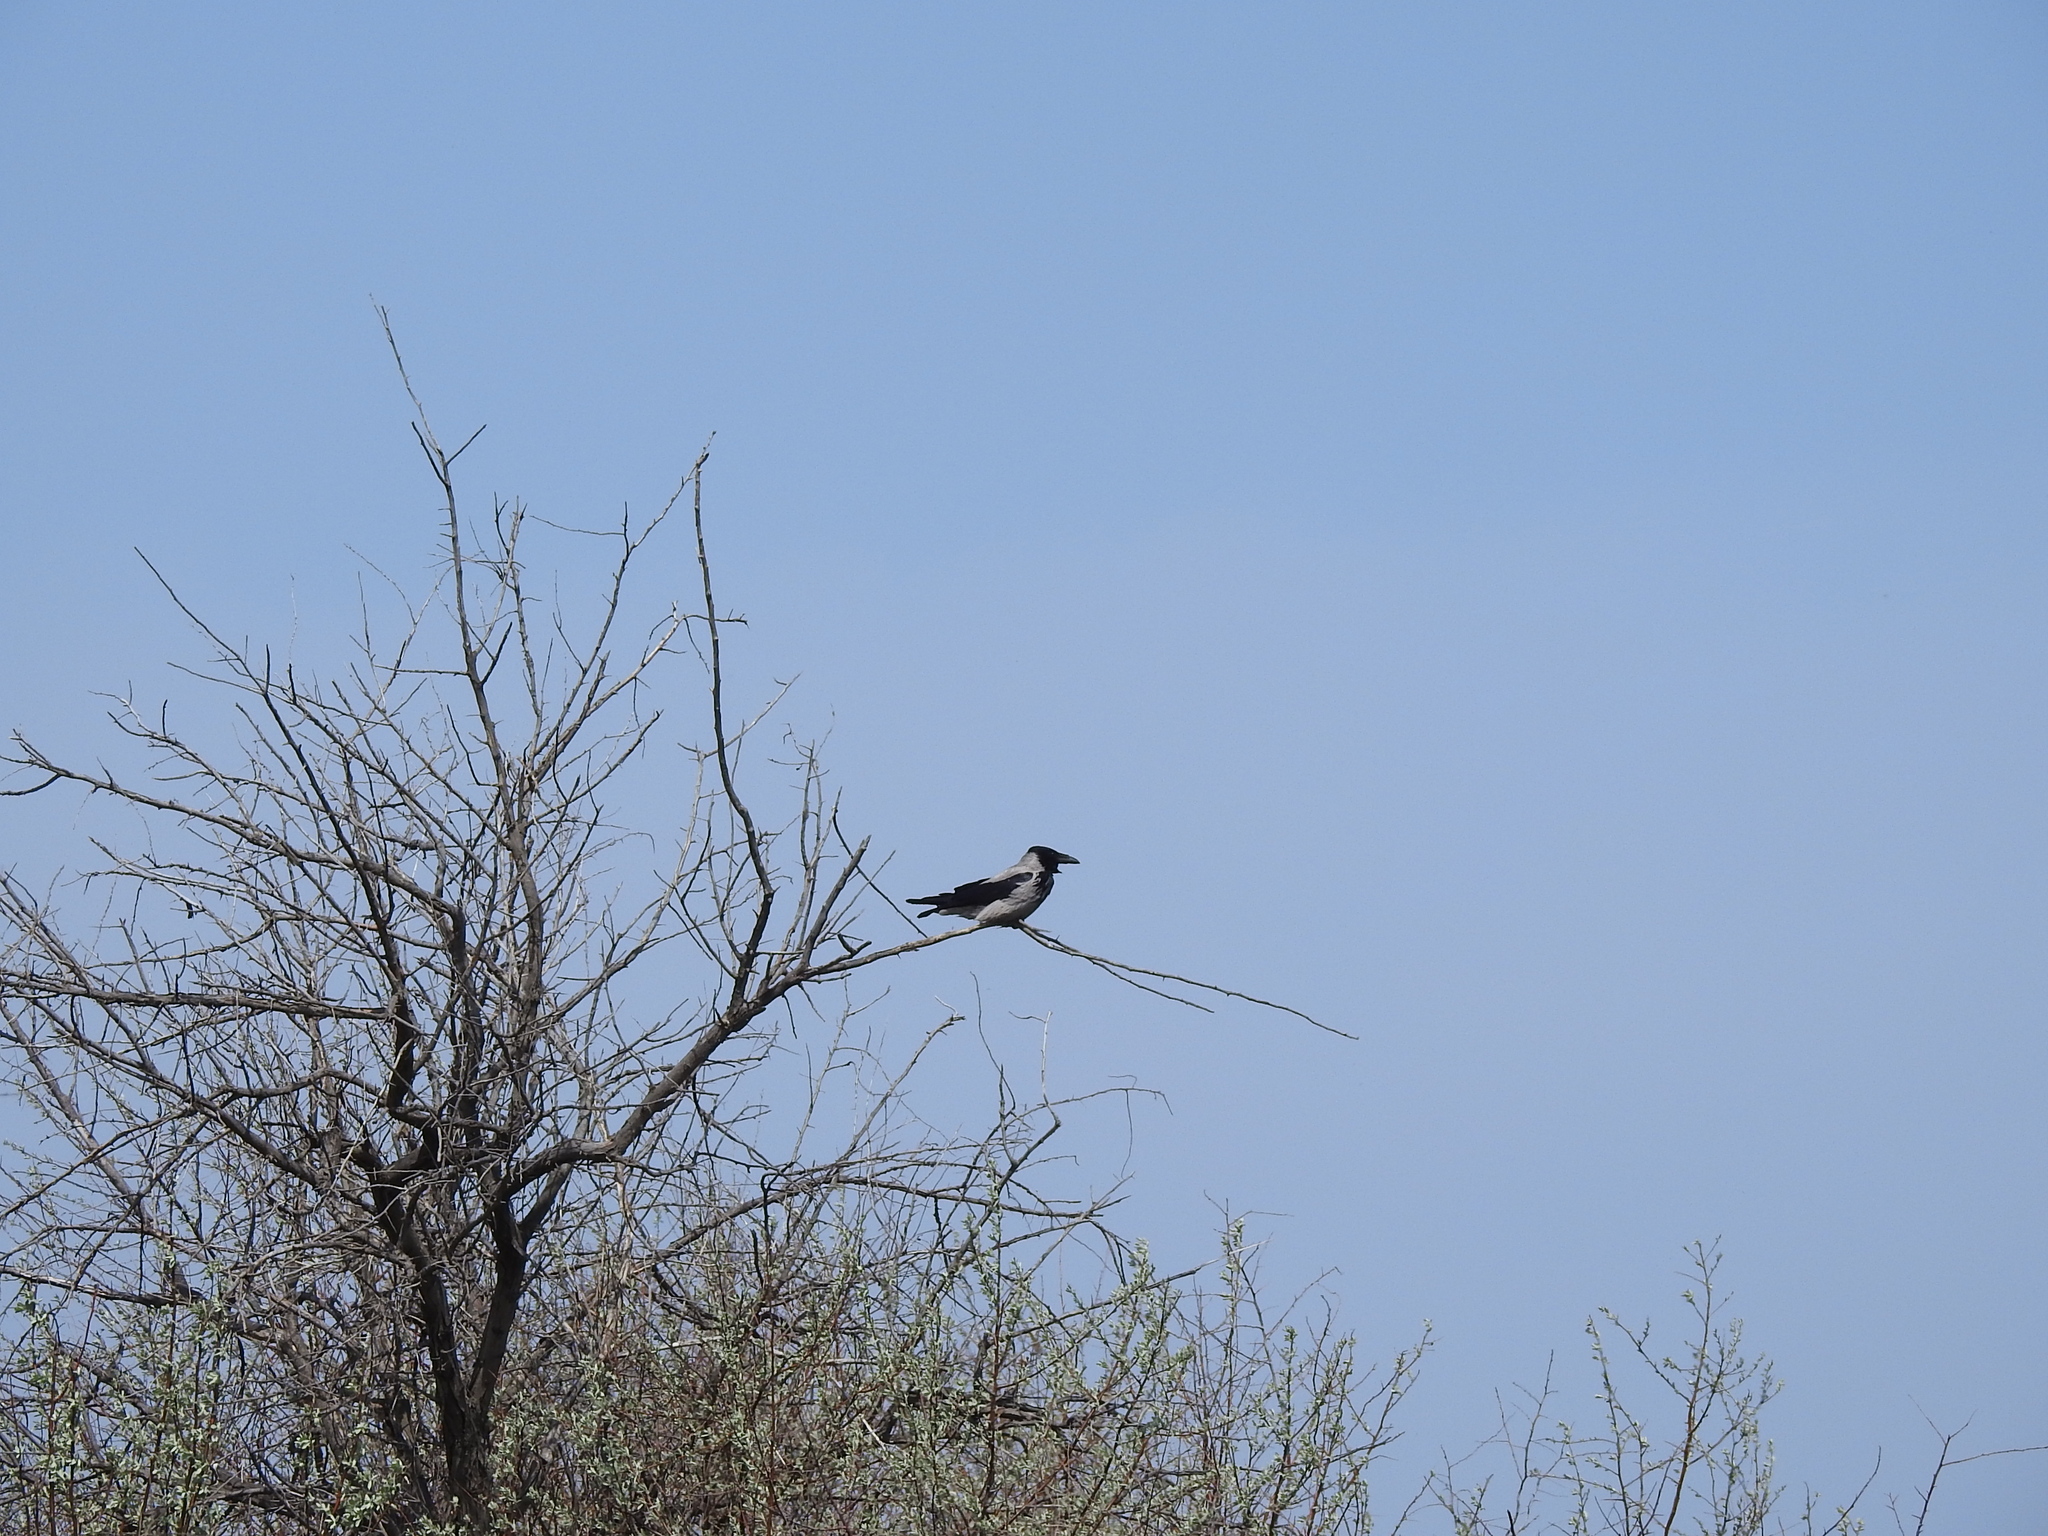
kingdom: Animalia
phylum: Chordata
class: Aves
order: Passeriformes
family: Corvidae
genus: Corvus
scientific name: Corvus cornix
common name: Hooded crow
